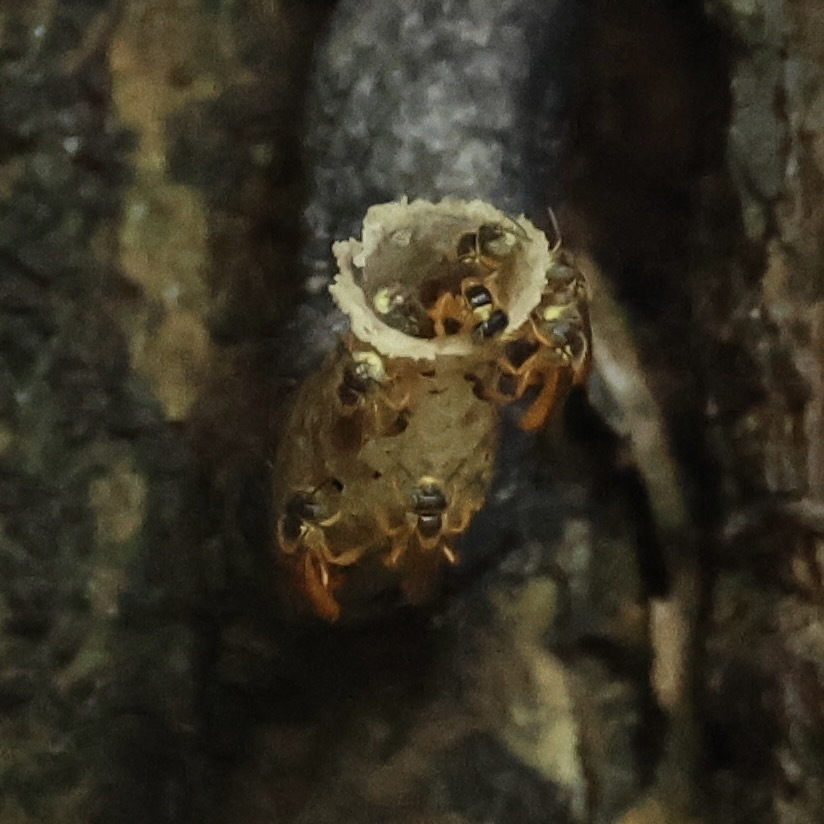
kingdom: Animalia
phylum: Arthropoda
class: Insecta
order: Hymenoptera
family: Apidae
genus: Tetragonisca
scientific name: Tetragonisca angustula
